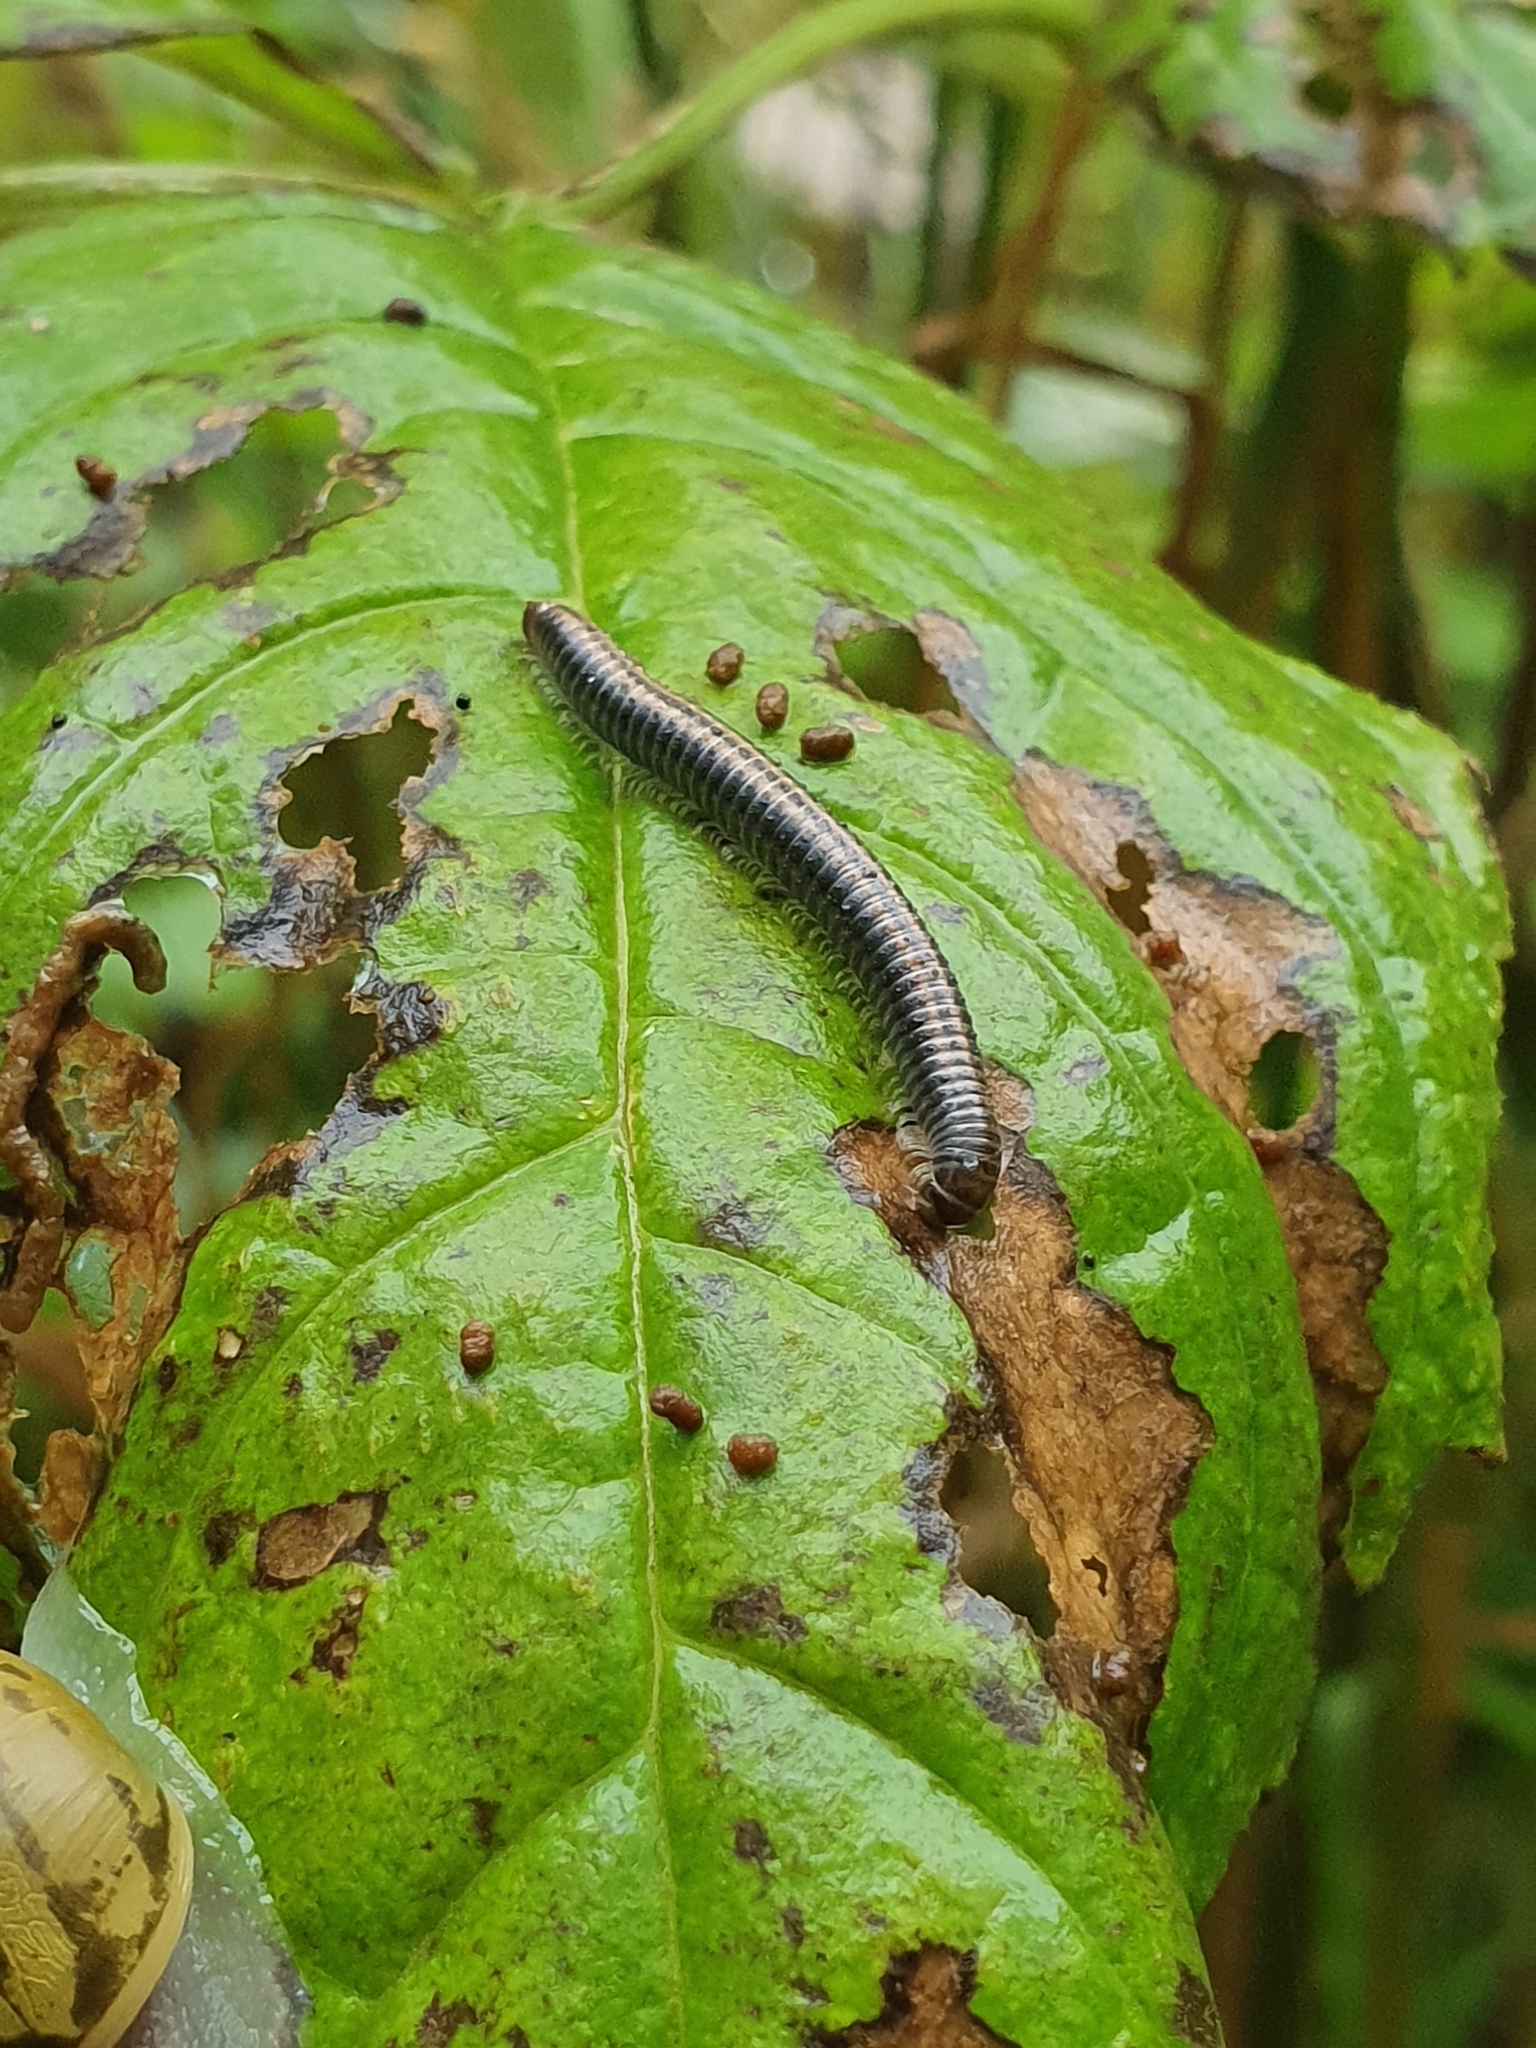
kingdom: Animalia
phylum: Arthropoda
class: Diplopoda
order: Julida
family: Julidae
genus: Ommatoiulus
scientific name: Ommatoiulus sabulosus
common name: Striped millipede
